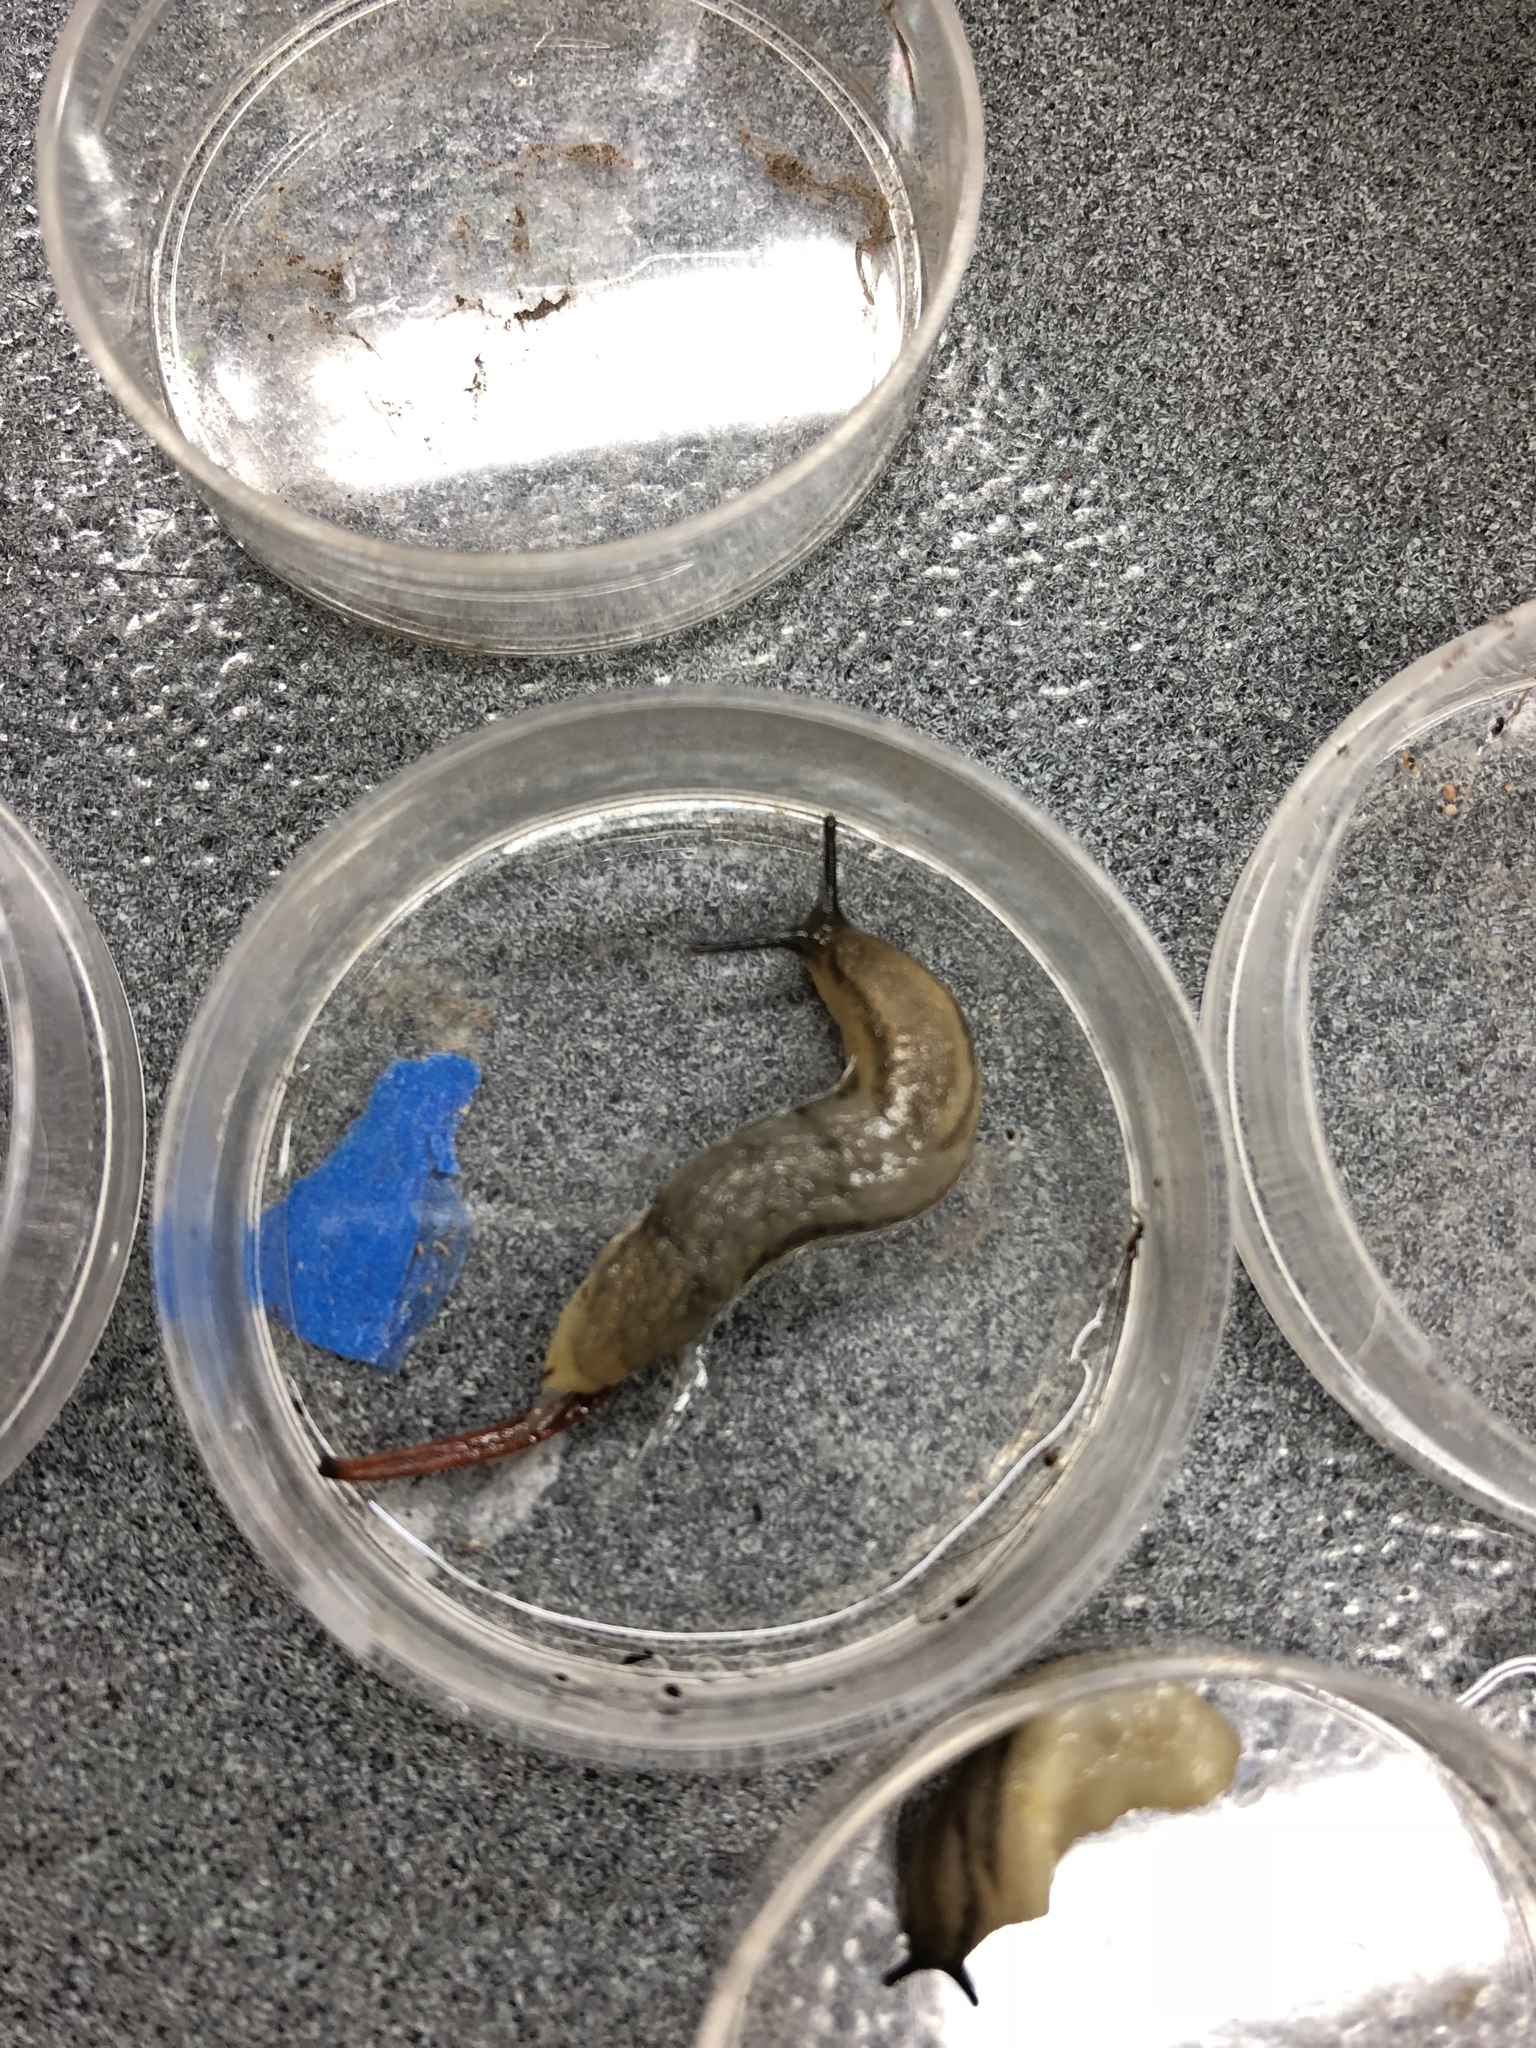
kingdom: Animalia
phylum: Mollusca
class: Gastropoda
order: Stylommatophora
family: Arionidae
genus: Arion
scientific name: Arion fasciatus
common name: Orange-banded arion
